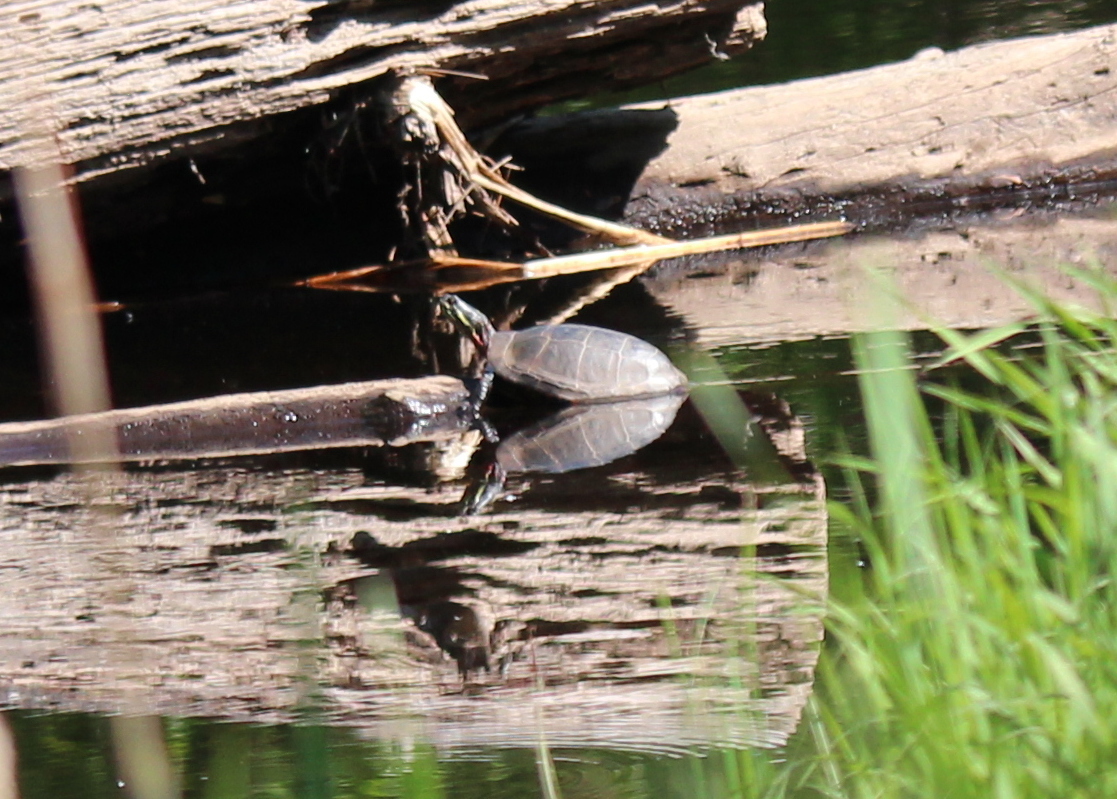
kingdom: Animalia
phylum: Chordata
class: Testudines
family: Emydidae
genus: Chrysemys
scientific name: Chrysemys picta
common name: Painted turtle
